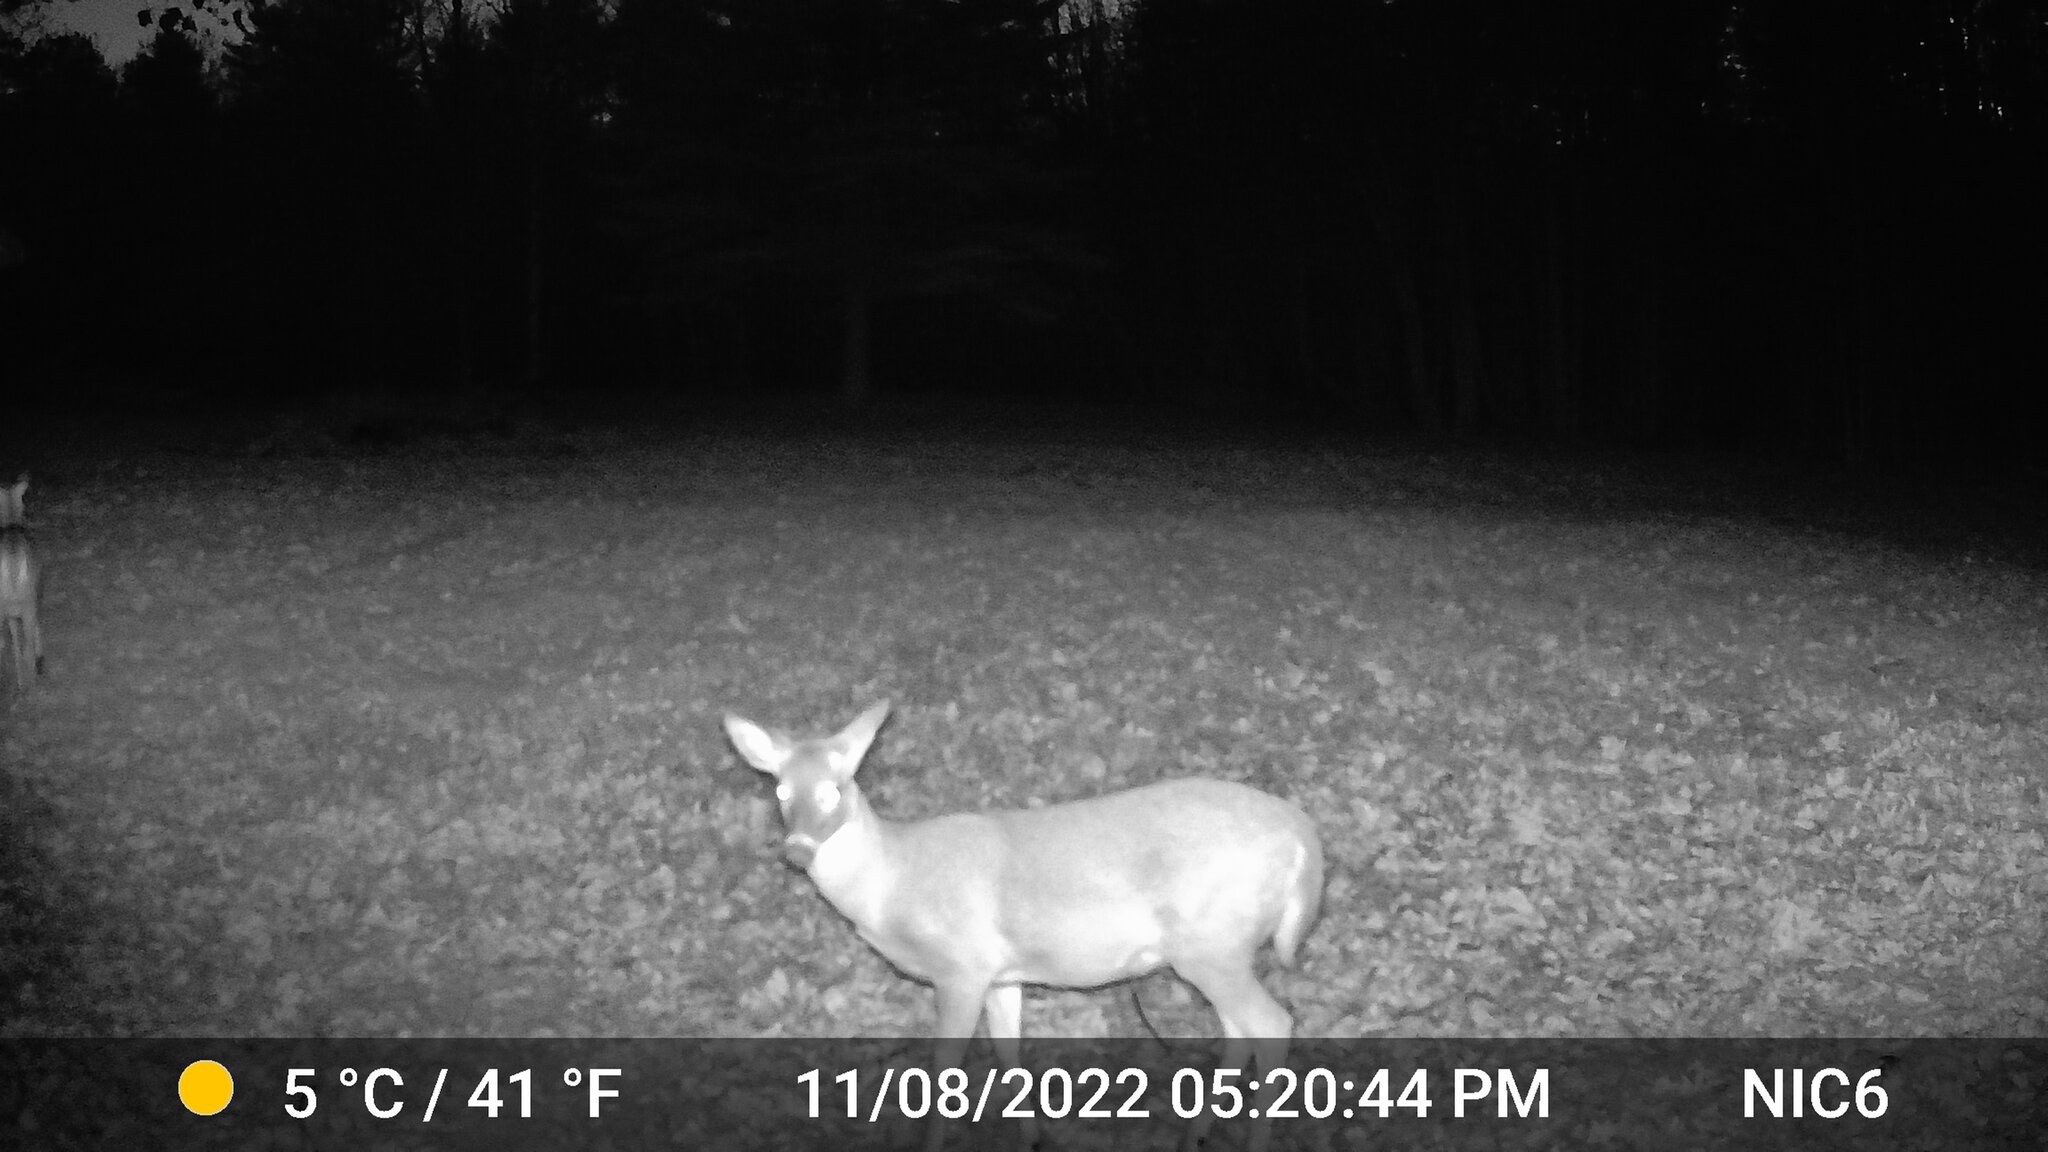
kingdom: Animalia
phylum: Chordata
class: Mammalia
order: Artiodactyla
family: Cervidae
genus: Odocoileus
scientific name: Odocoileus virginianus
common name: White-tailed deer
